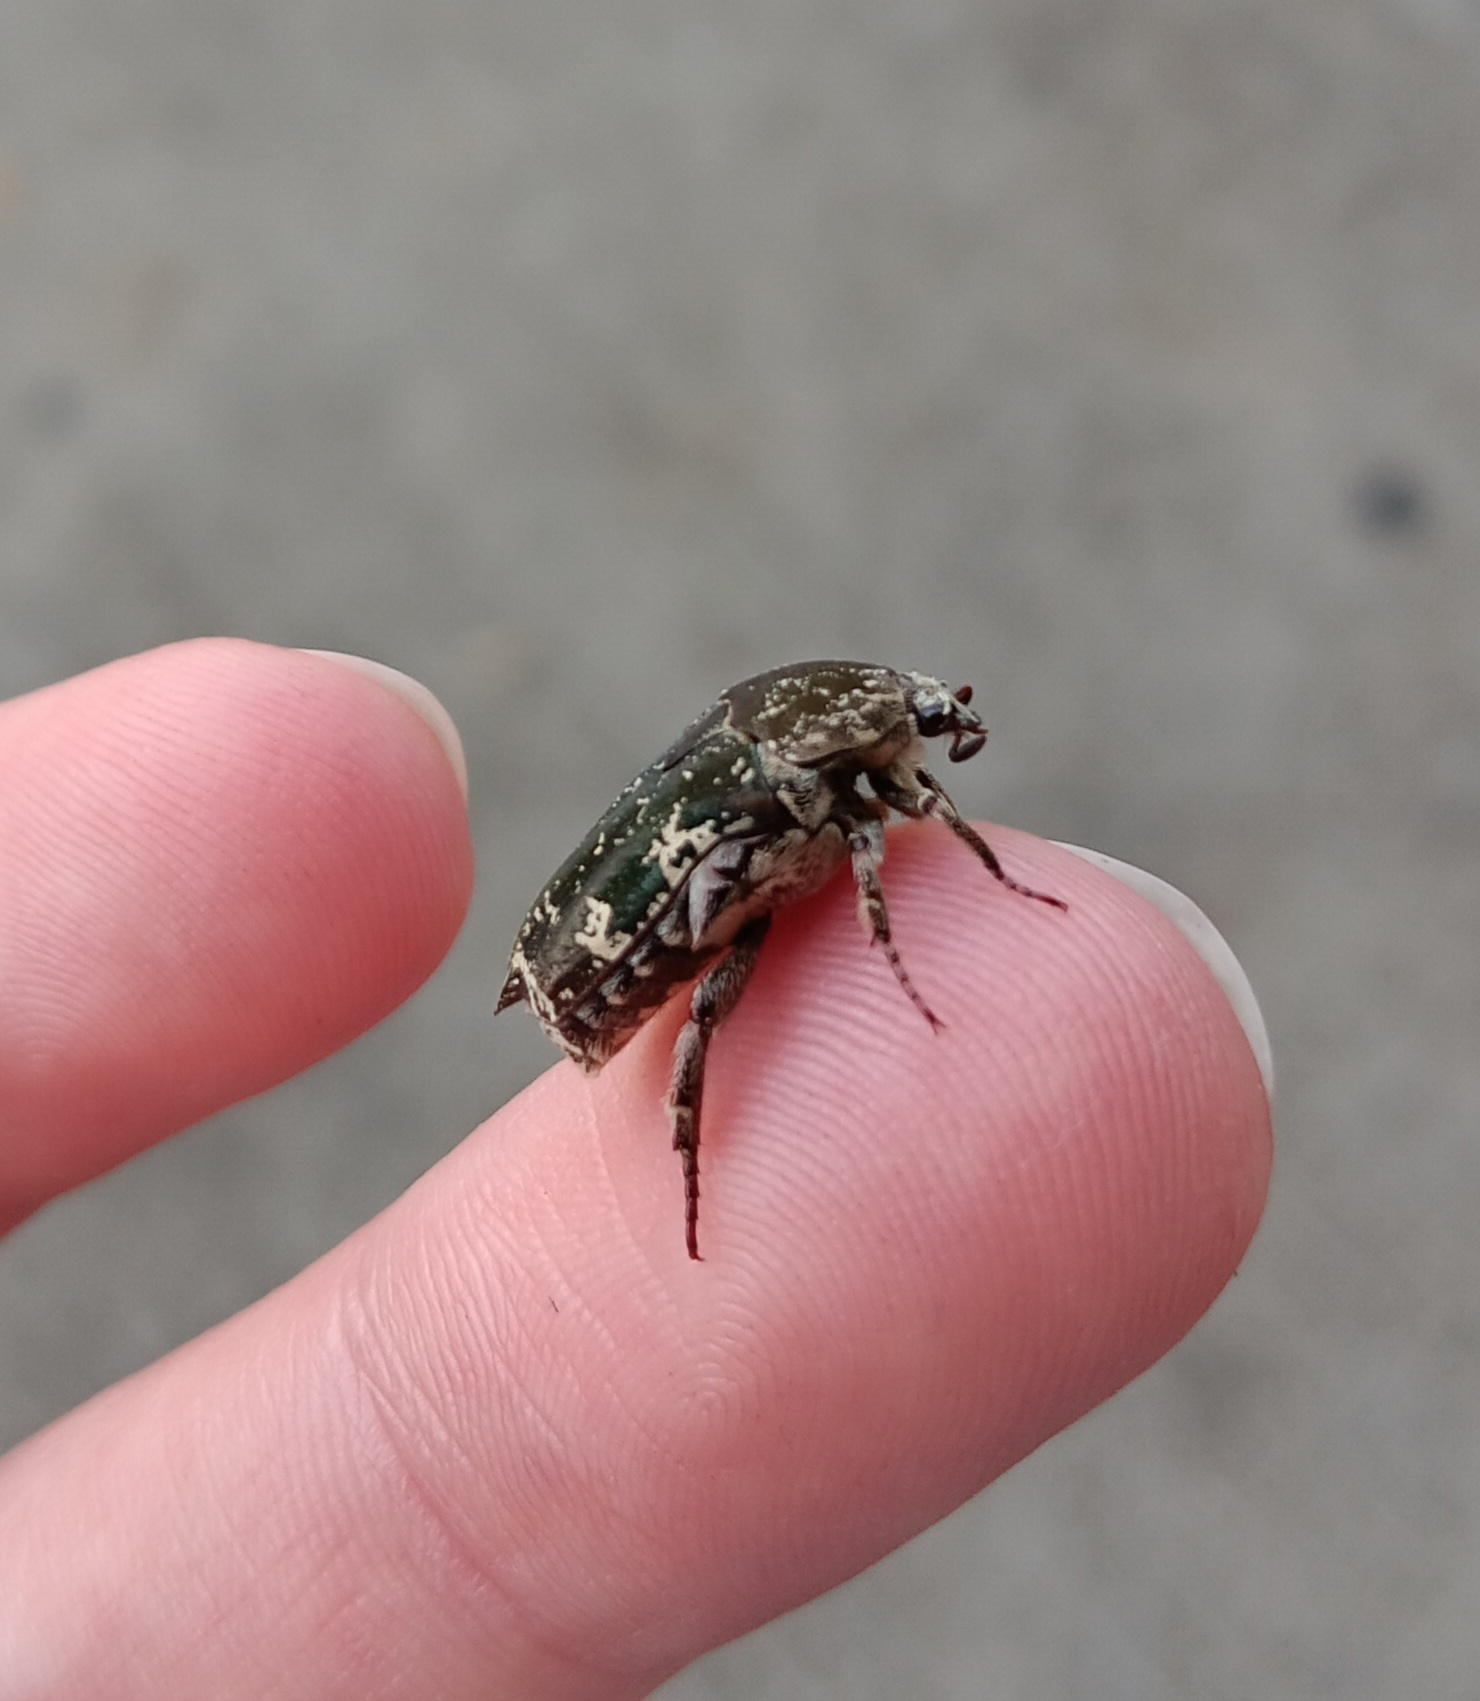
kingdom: Animalia
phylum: Arthropoda
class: Insecta
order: Coleoptera
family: Scarabaeidae
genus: Protaetia
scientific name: Protaetia fusca
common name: Mango flower beetle
